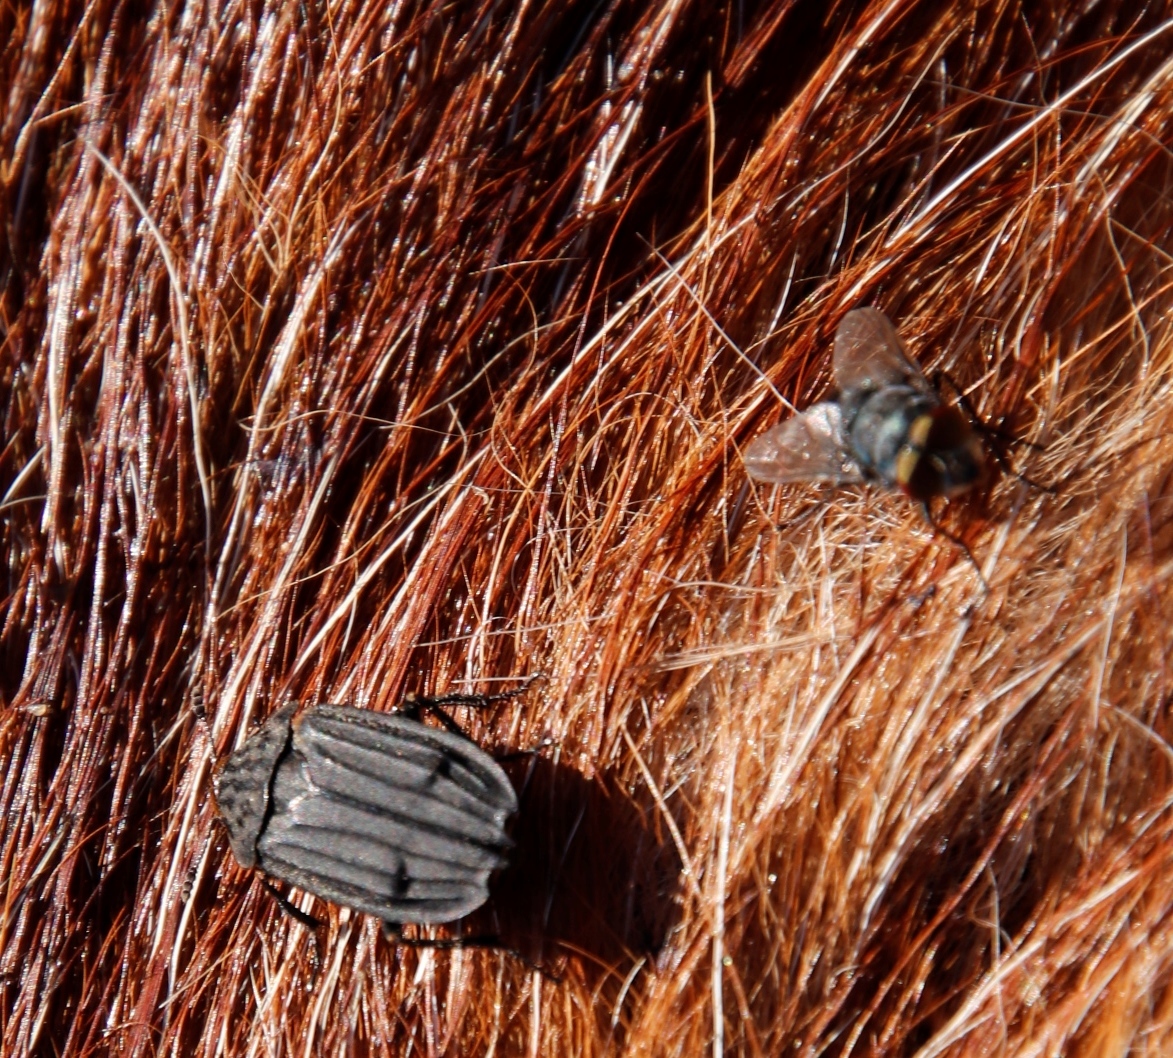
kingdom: Animalia
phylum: Arthropoda
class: Insecta
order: Diptera
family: Calliphoridae
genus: Chrysomya
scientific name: Chrysomya chloropyga
